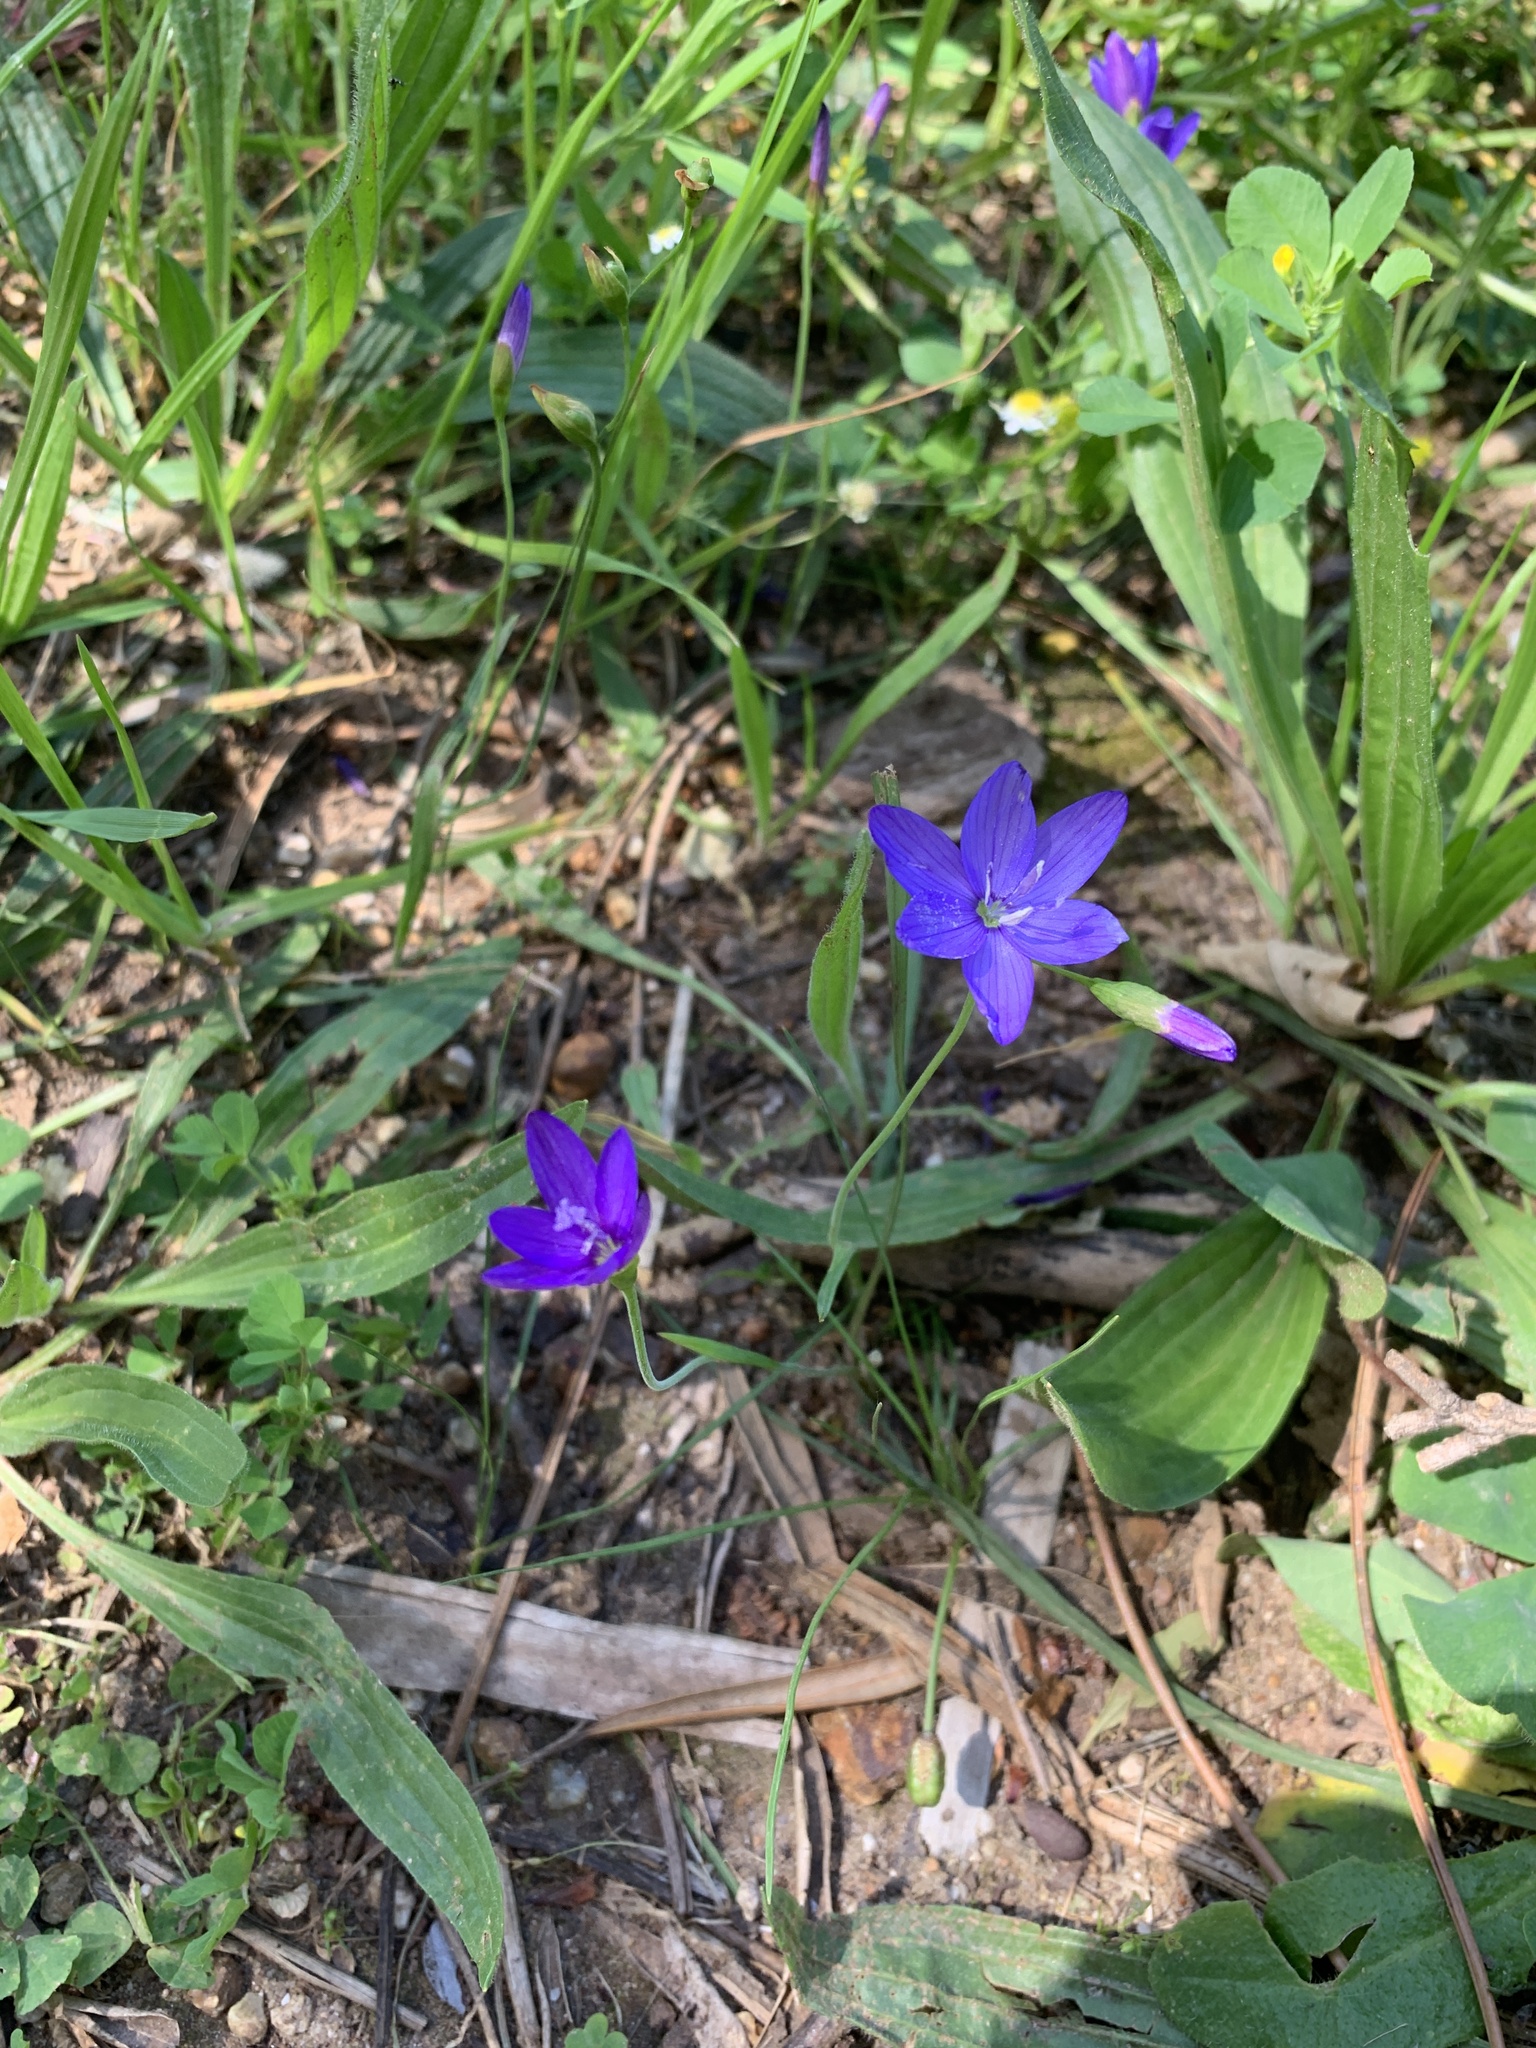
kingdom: Plantae
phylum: Tracheophyta
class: Liliopsida
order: Asparagales
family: Iridaceae
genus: Geissorhiza
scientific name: Geissorhiza aspera
